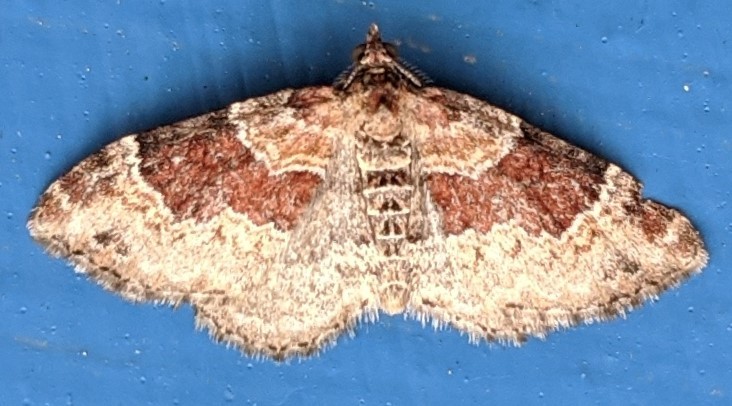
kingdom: Animalia
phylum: Arthropoda
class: Insecta
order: Lepidoptera
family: Geometridae
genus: Xanthorhoe
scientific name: Xanthorhoe ferrugata
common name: Dark-barred twin-spot carpet
